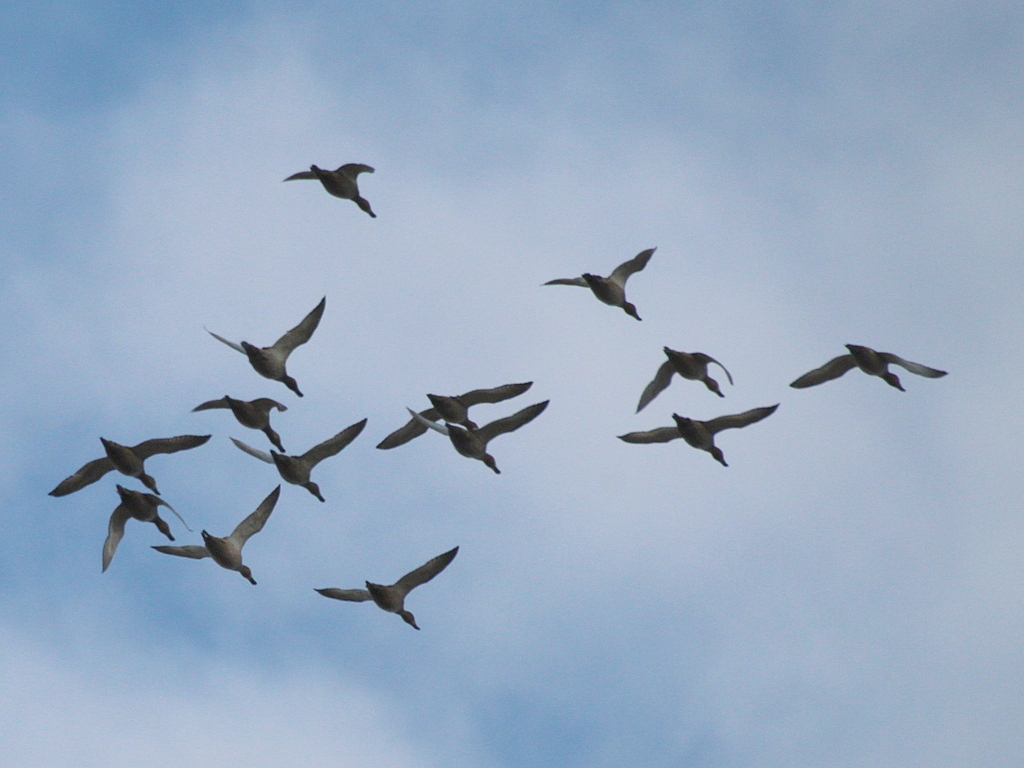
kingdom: Animalia
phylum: Chordata
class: Aves
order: Anseriformes
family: Anatidae
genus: Aythya
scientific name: Aythya ferina
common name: Common pochard
